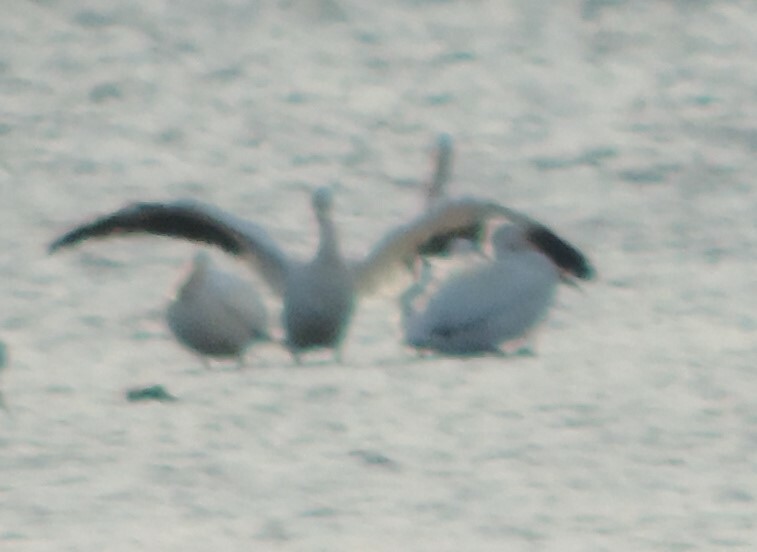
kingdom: Animalia
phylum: Chordata
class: Aves
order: Pelecaniformes
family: Pelecanidae
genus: Pelecanus
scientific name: Pelecanus erythrorhynchos
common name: American white pelican
